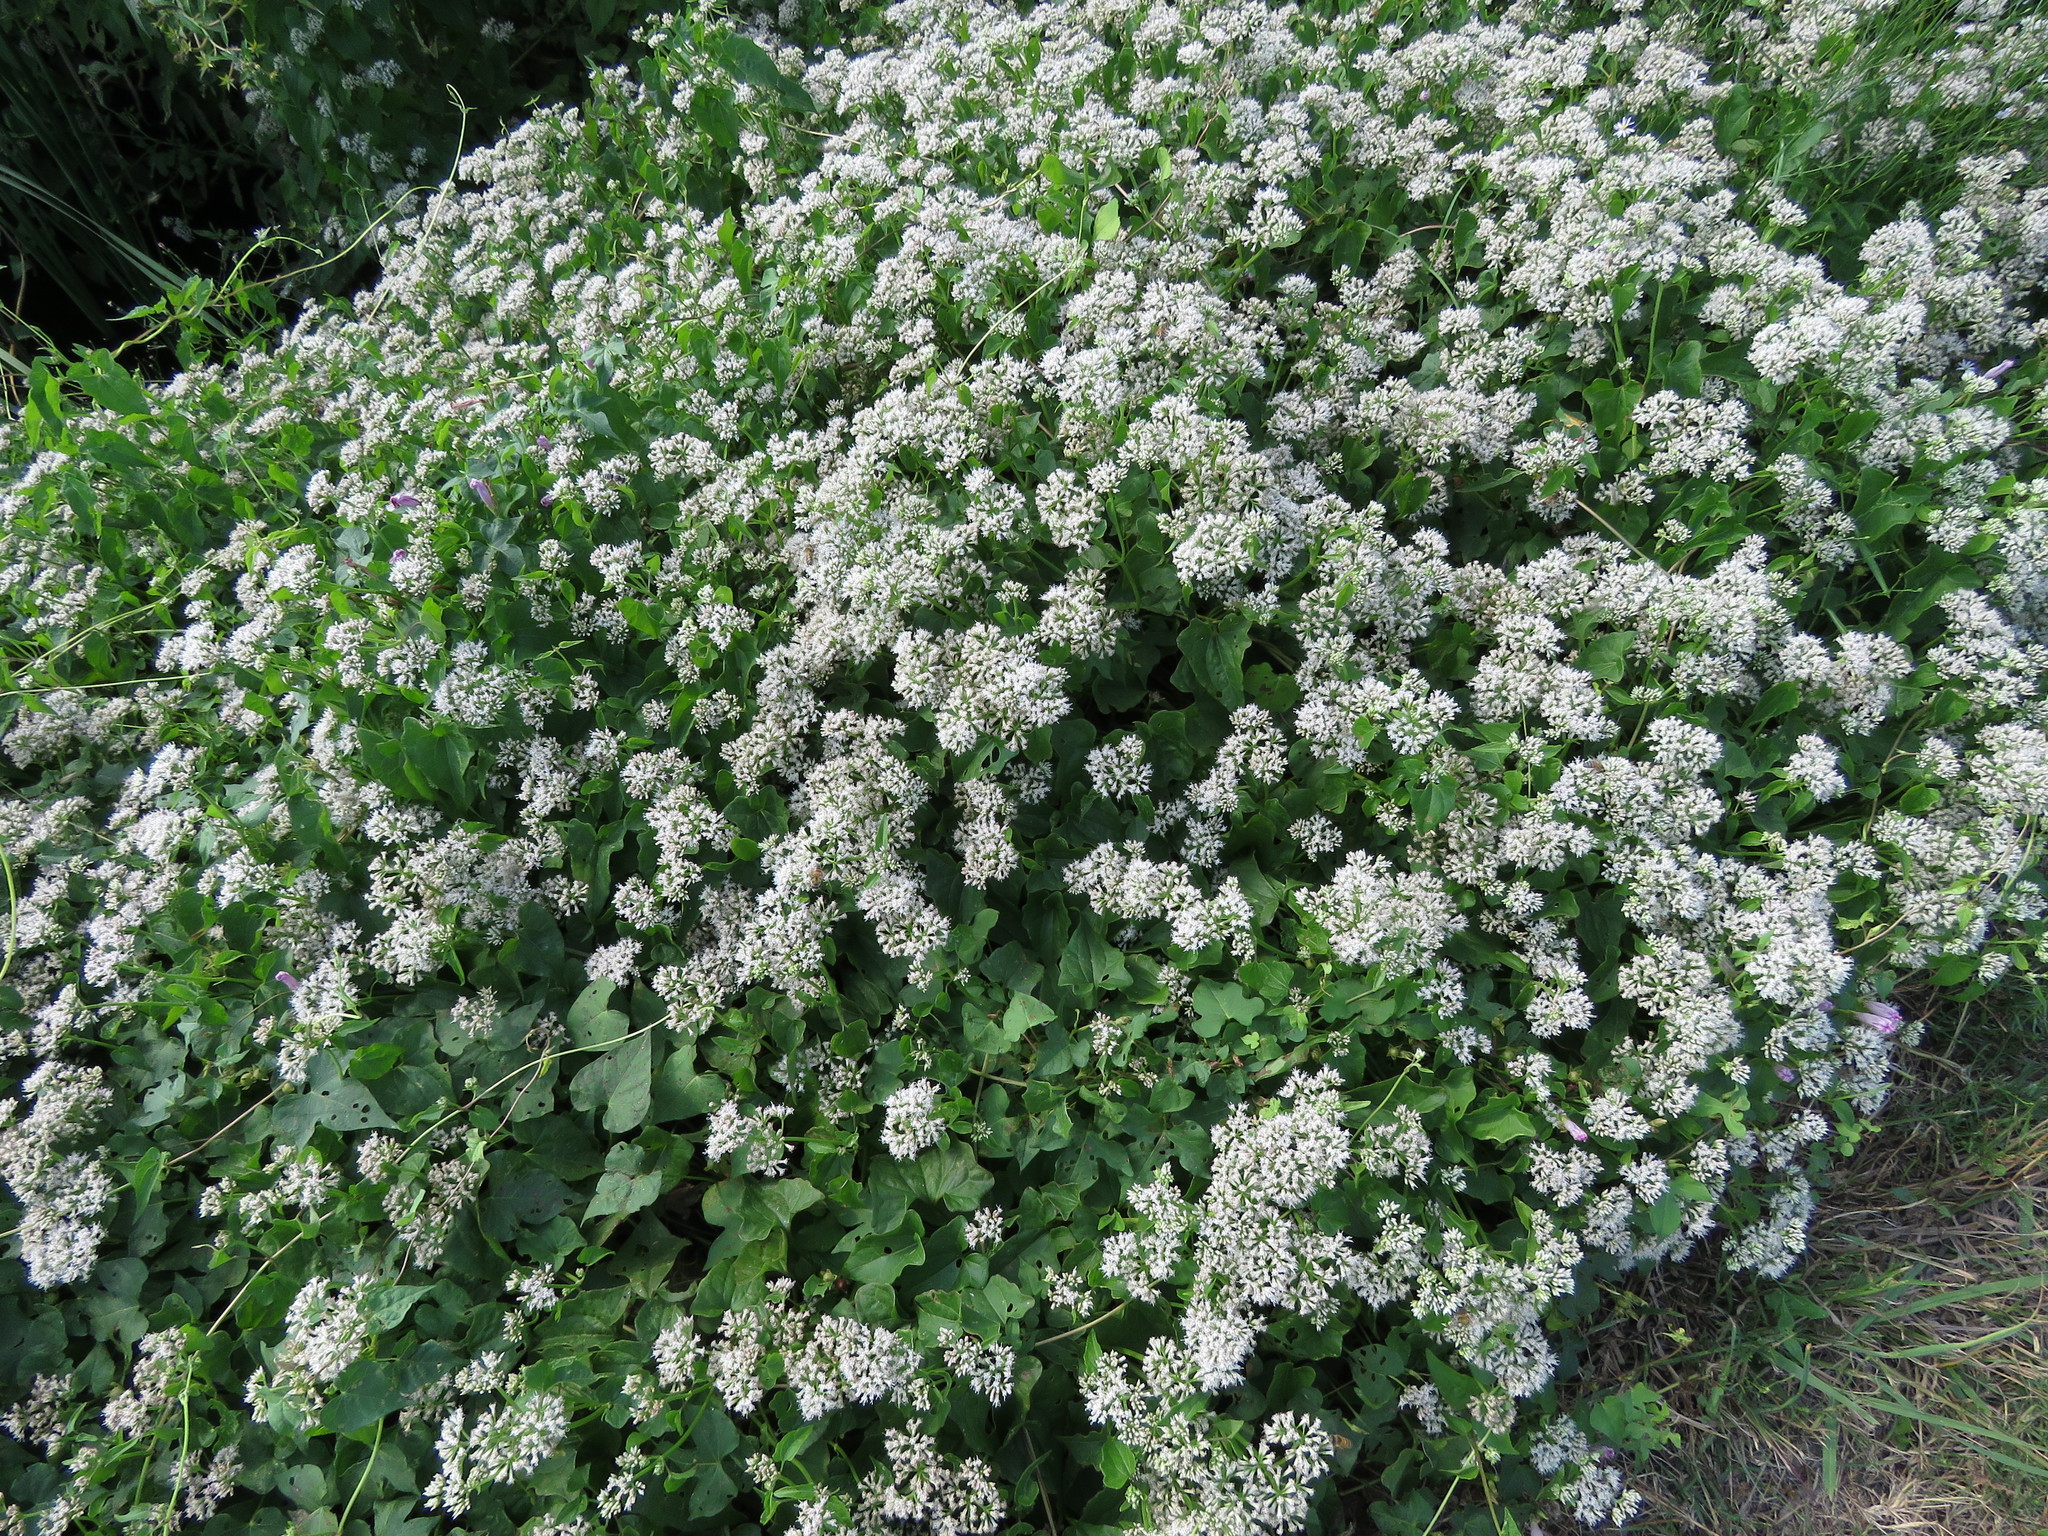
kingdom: Plantae
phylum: Tracheophyta
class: Magnoliopsida
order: Asterales
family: Asteraceae
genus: Mikania
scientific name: Mikania scandens
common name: Climbing hempvine
